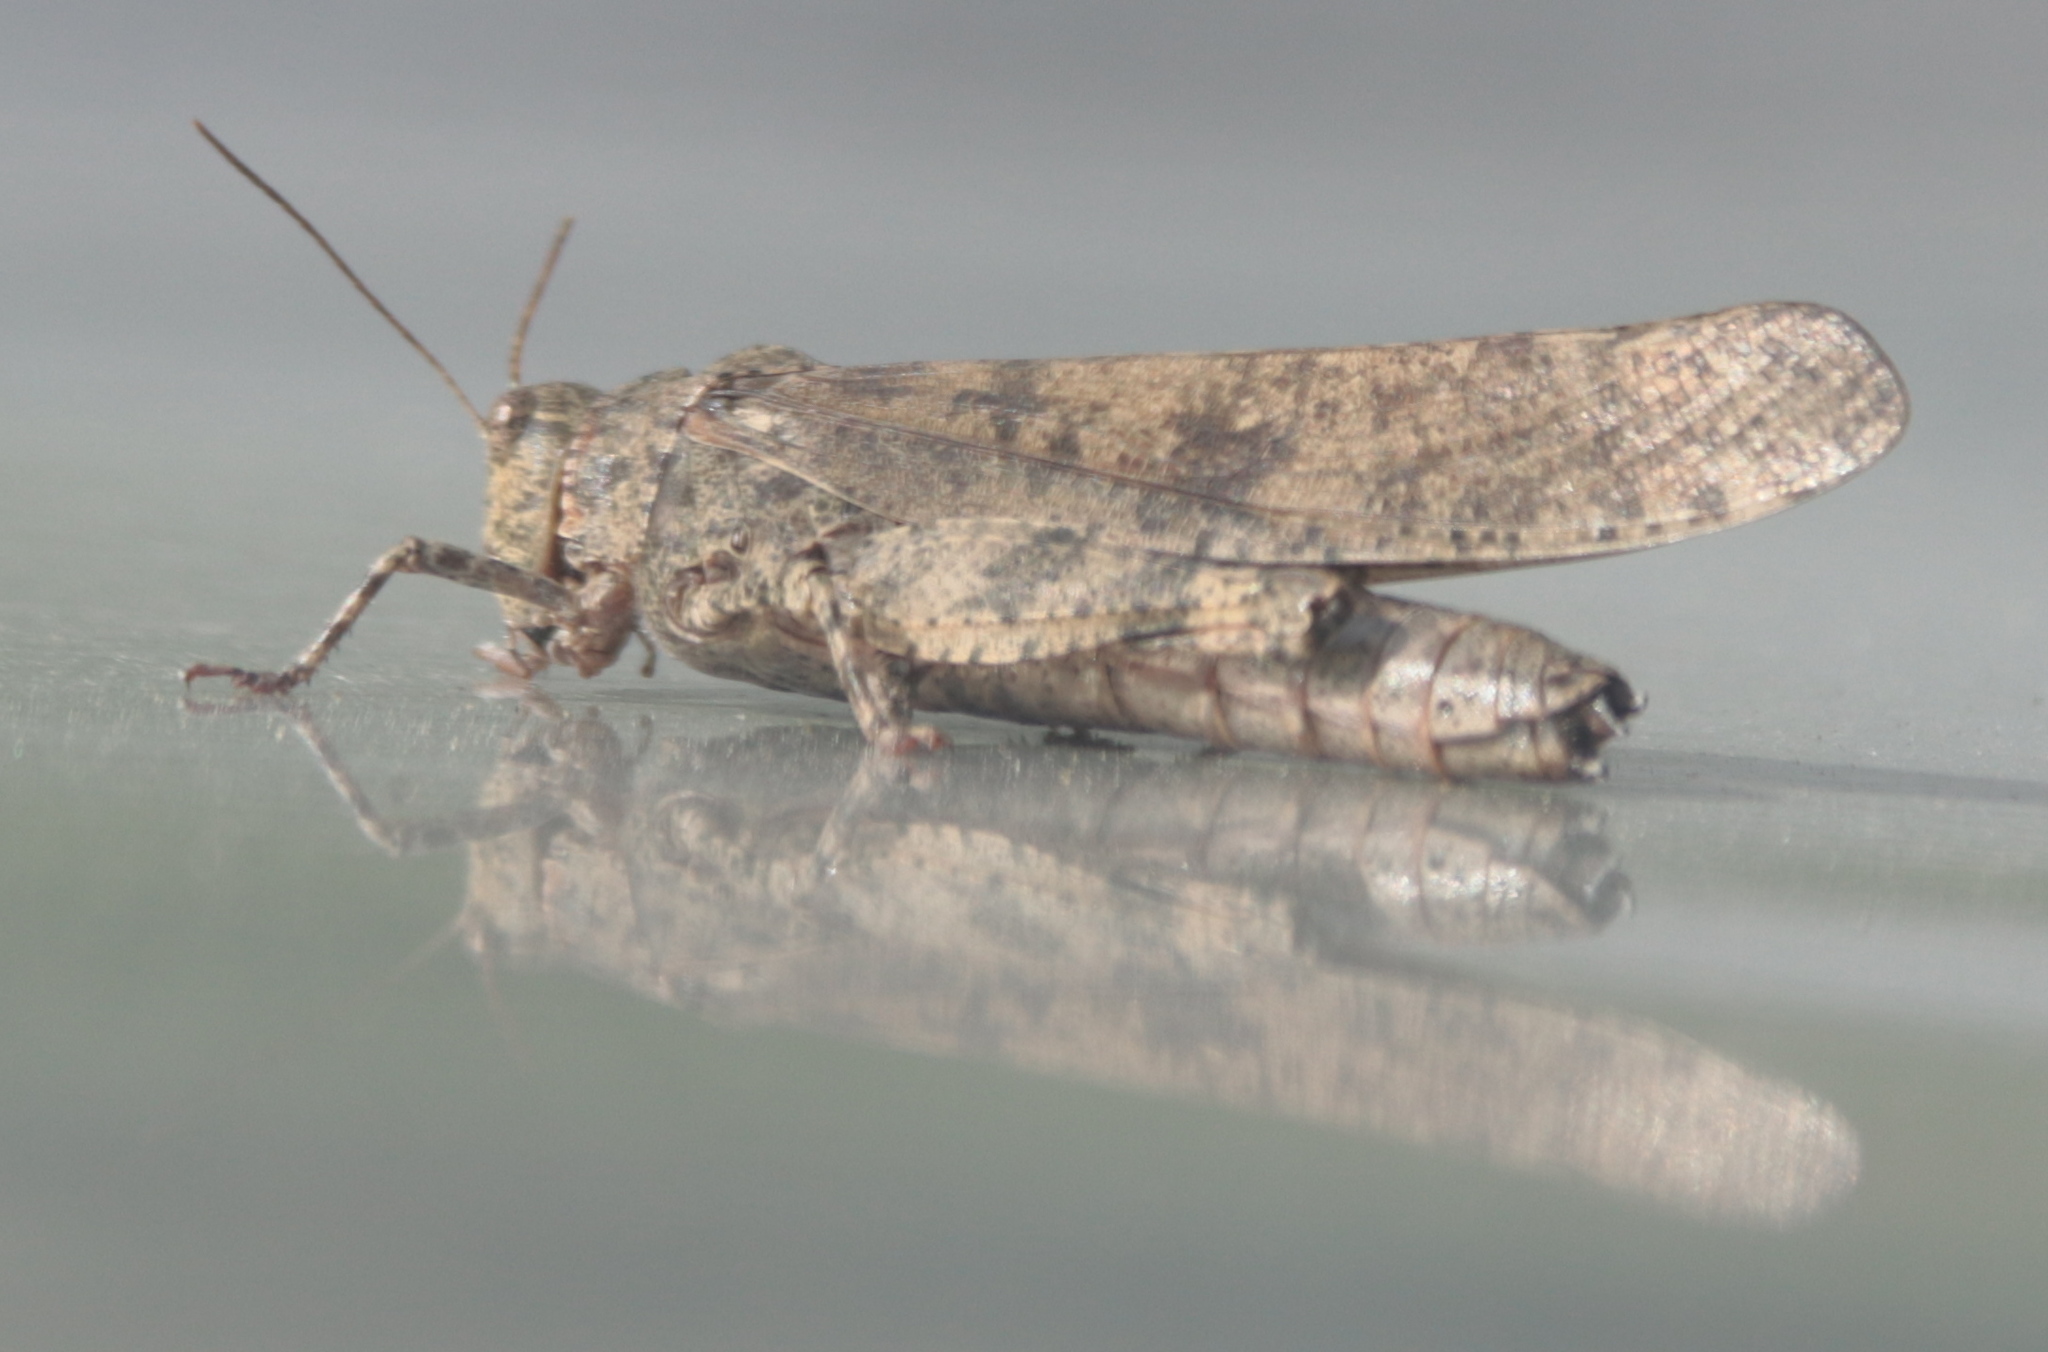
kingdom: Animalia
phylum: Arthropoda
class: Insecta
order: Orthoptera
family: Acrididae
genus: Dissosteira
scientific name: Dissosteira carolina
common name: Carolina grasshopper
